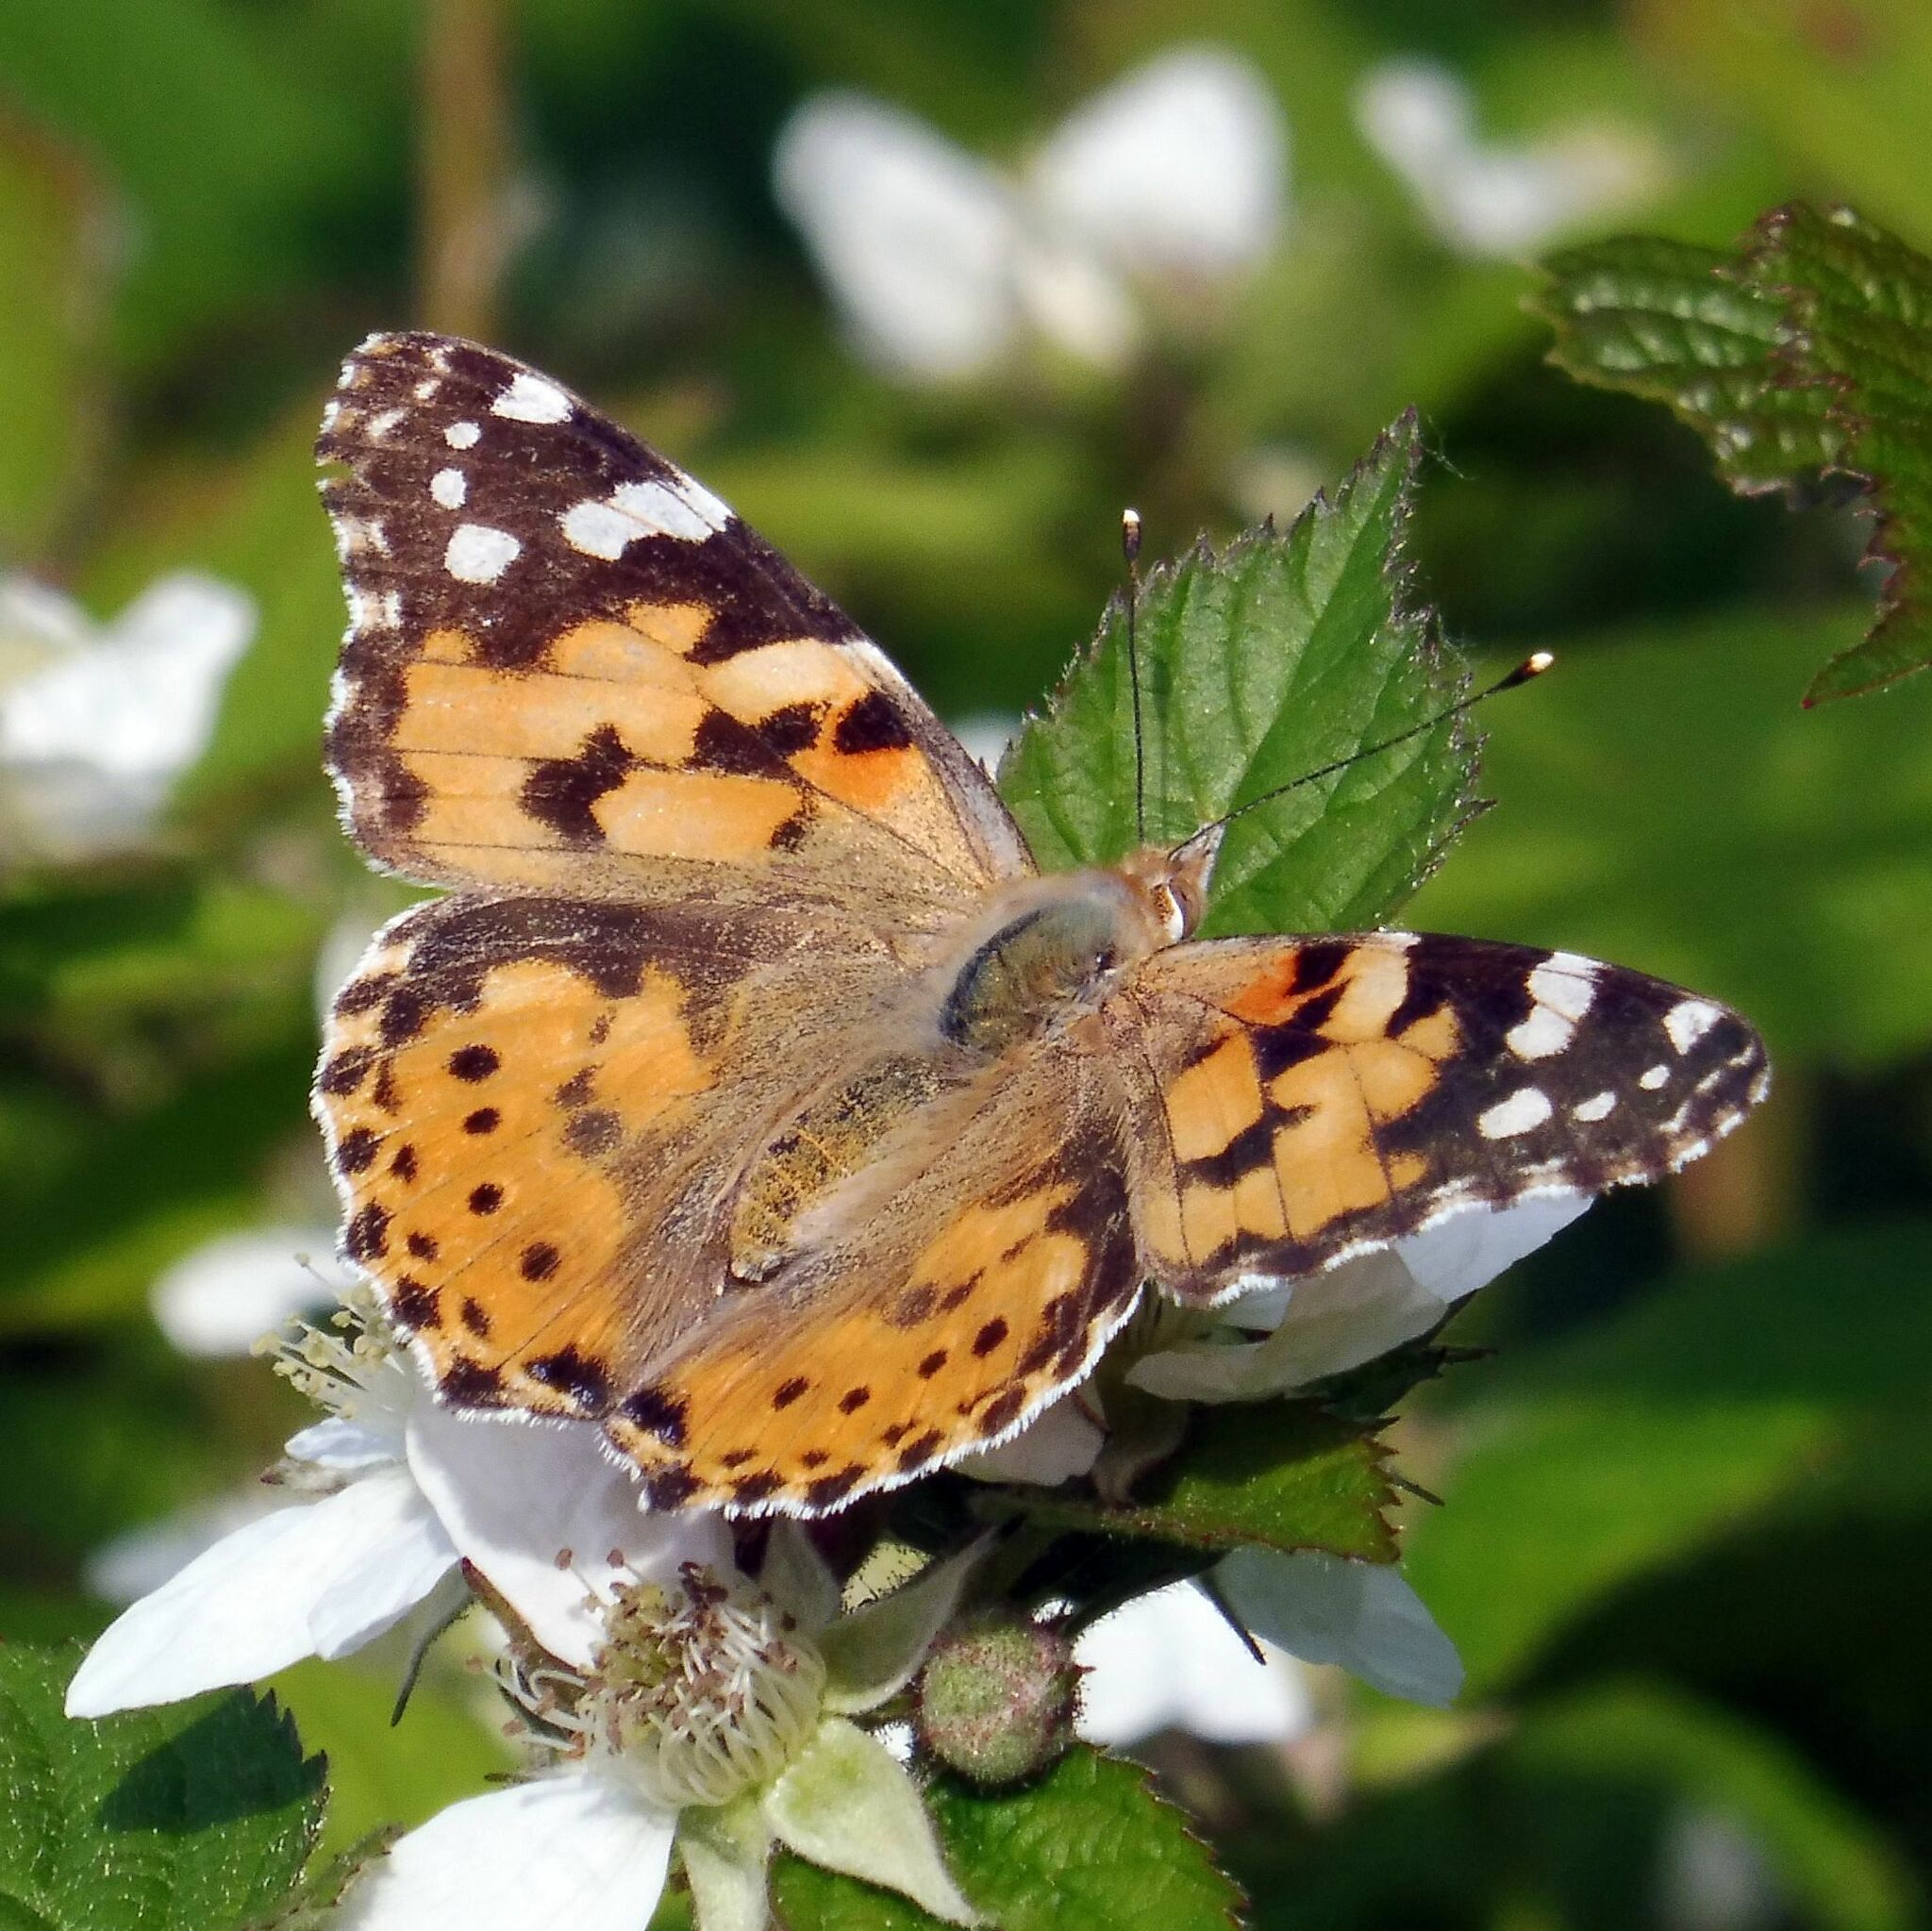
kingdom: Animalia
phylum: Arthropoda
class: Insecta
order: Lepidoptera
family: Nymphalidae
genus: Vanessa
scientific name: Vanessa cardui
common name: Painted lady
